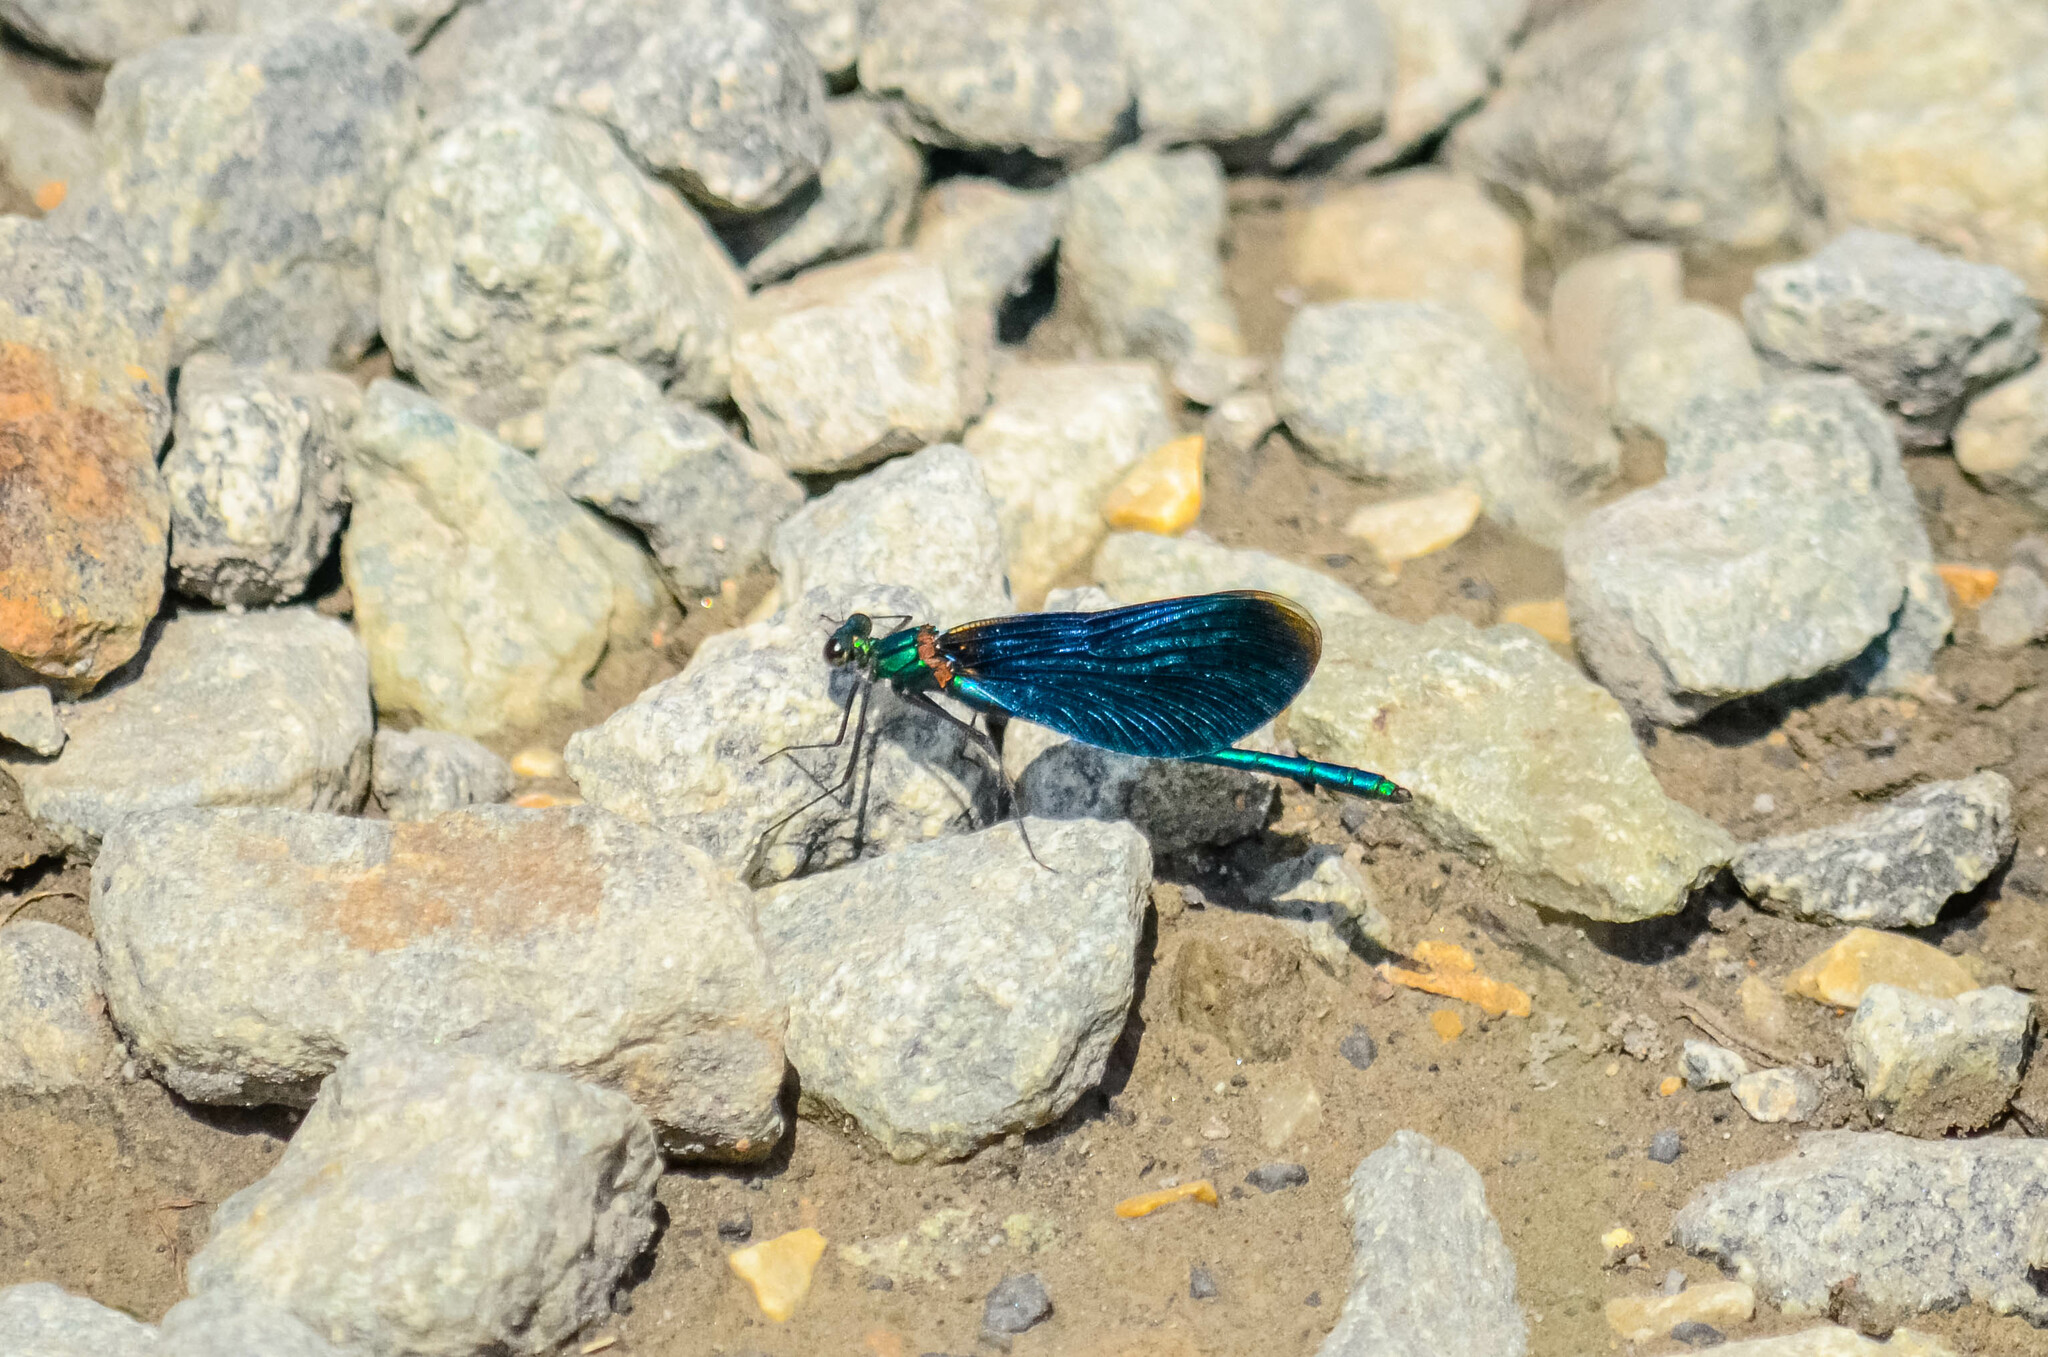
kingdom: Animalia
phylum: Arthropoda
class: Insecta
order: Odonata
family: Calopterygidae
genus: Calopteryx
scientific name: Calopteryx virgo
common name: Beautiful demoiselle
